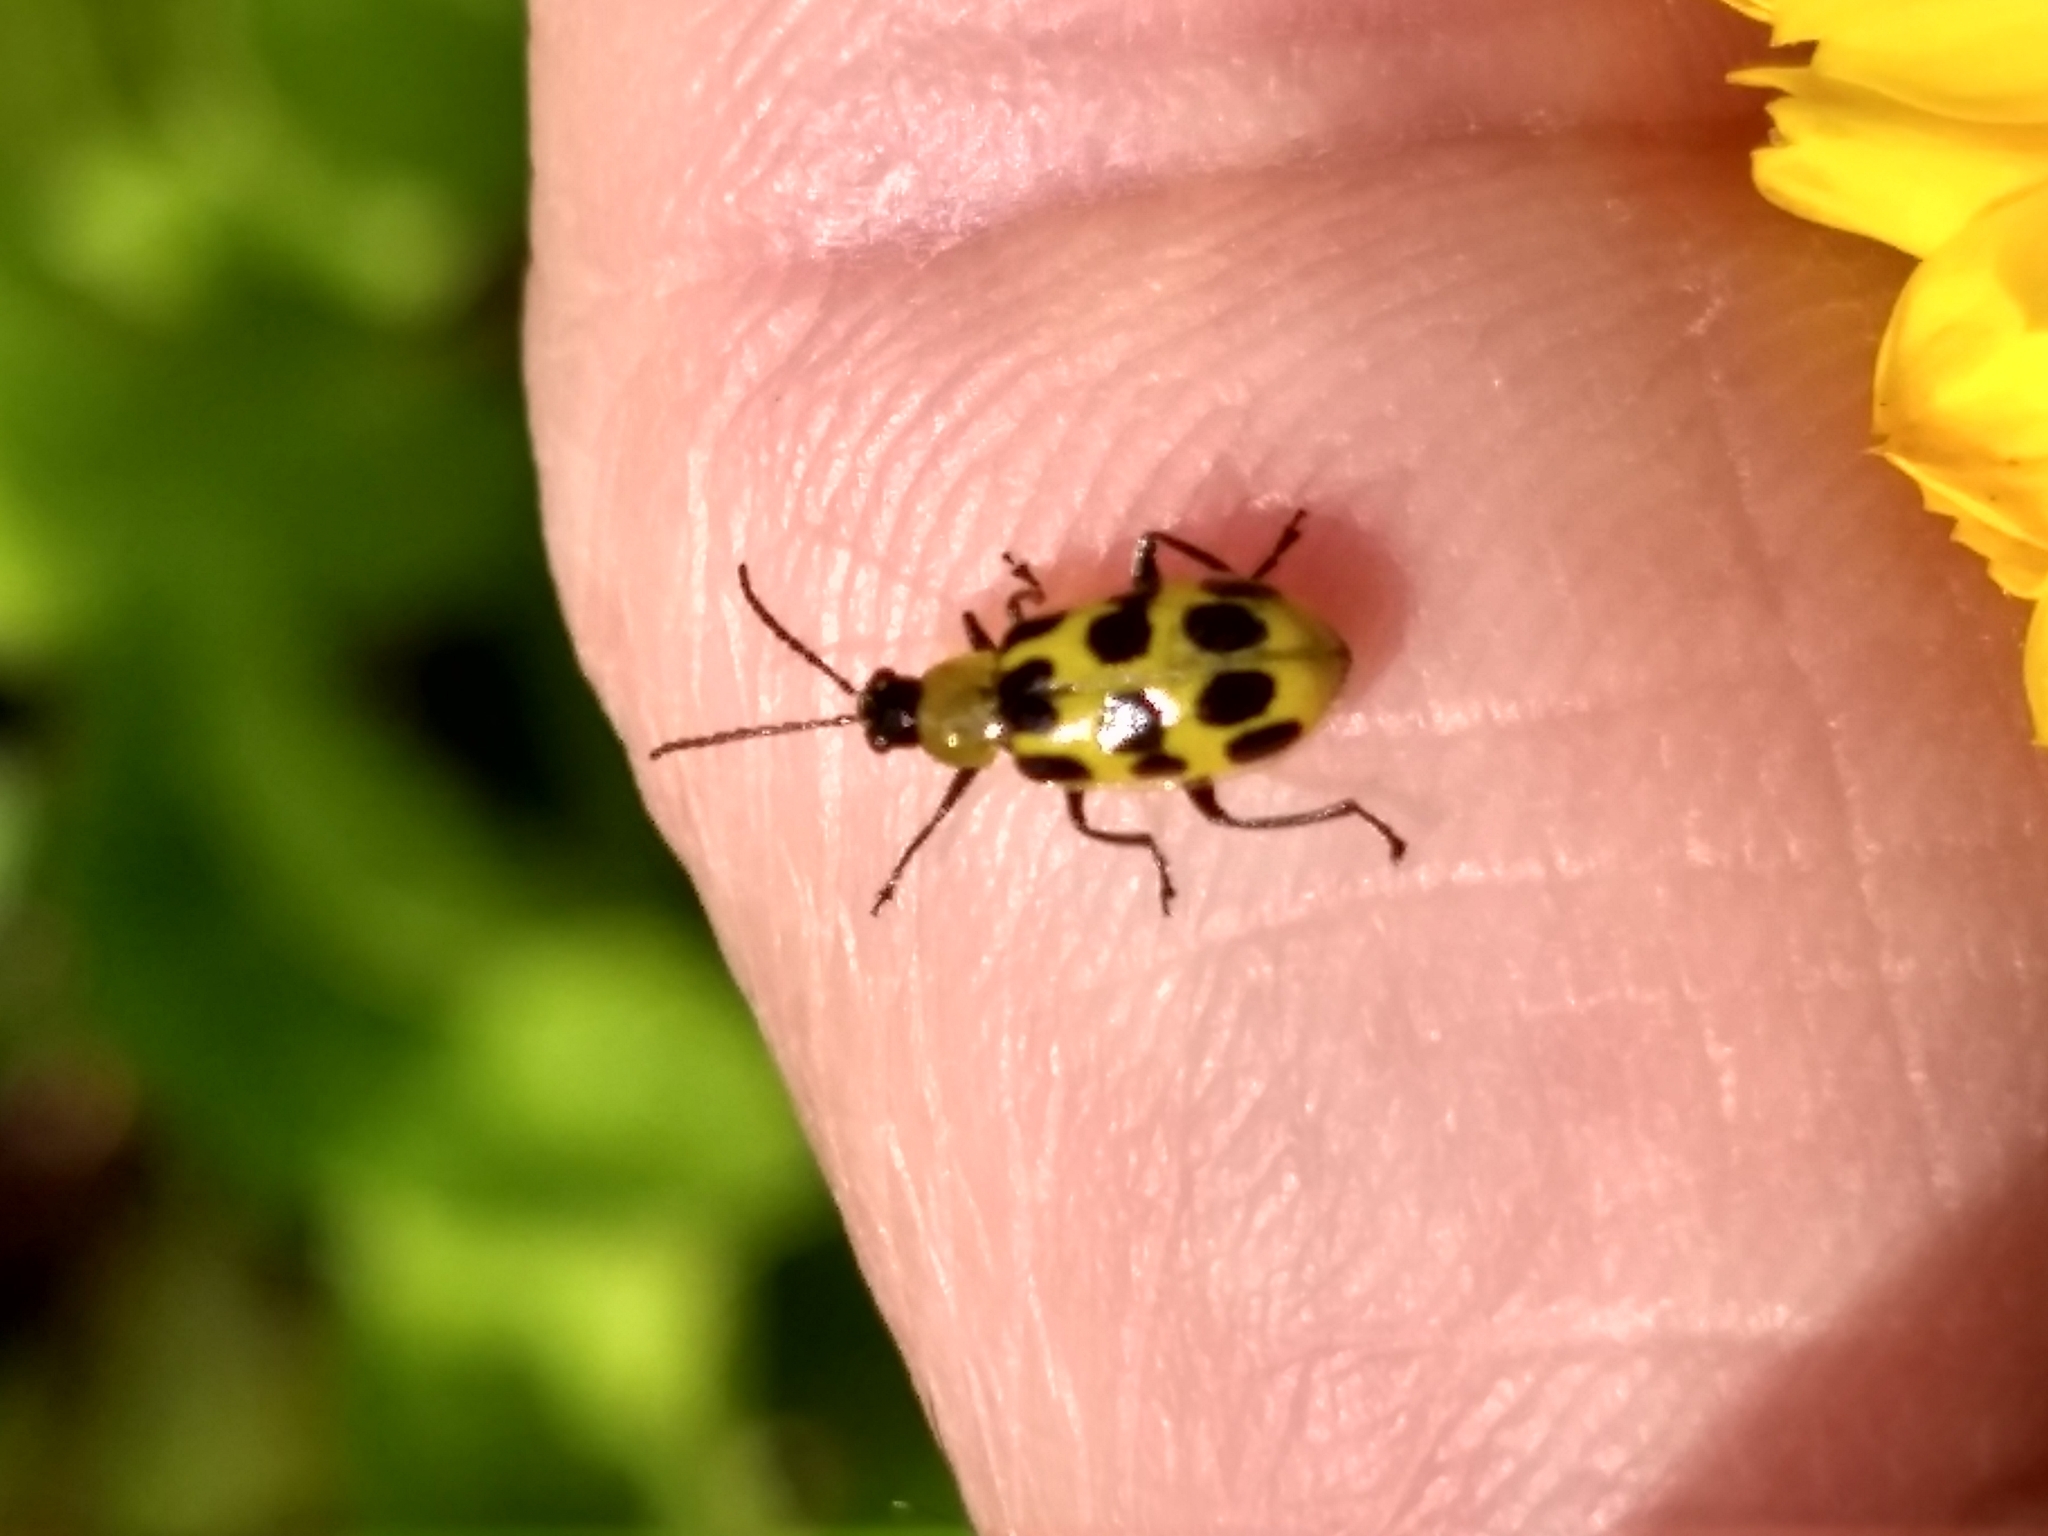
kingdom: Animalia
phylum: Arthropoda
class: Insecta
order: Coleoptera
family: Chrysomelidae
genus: Diabrotica
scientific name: Diabrotica undecimpunctata
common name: Spotted cucumber beetle
